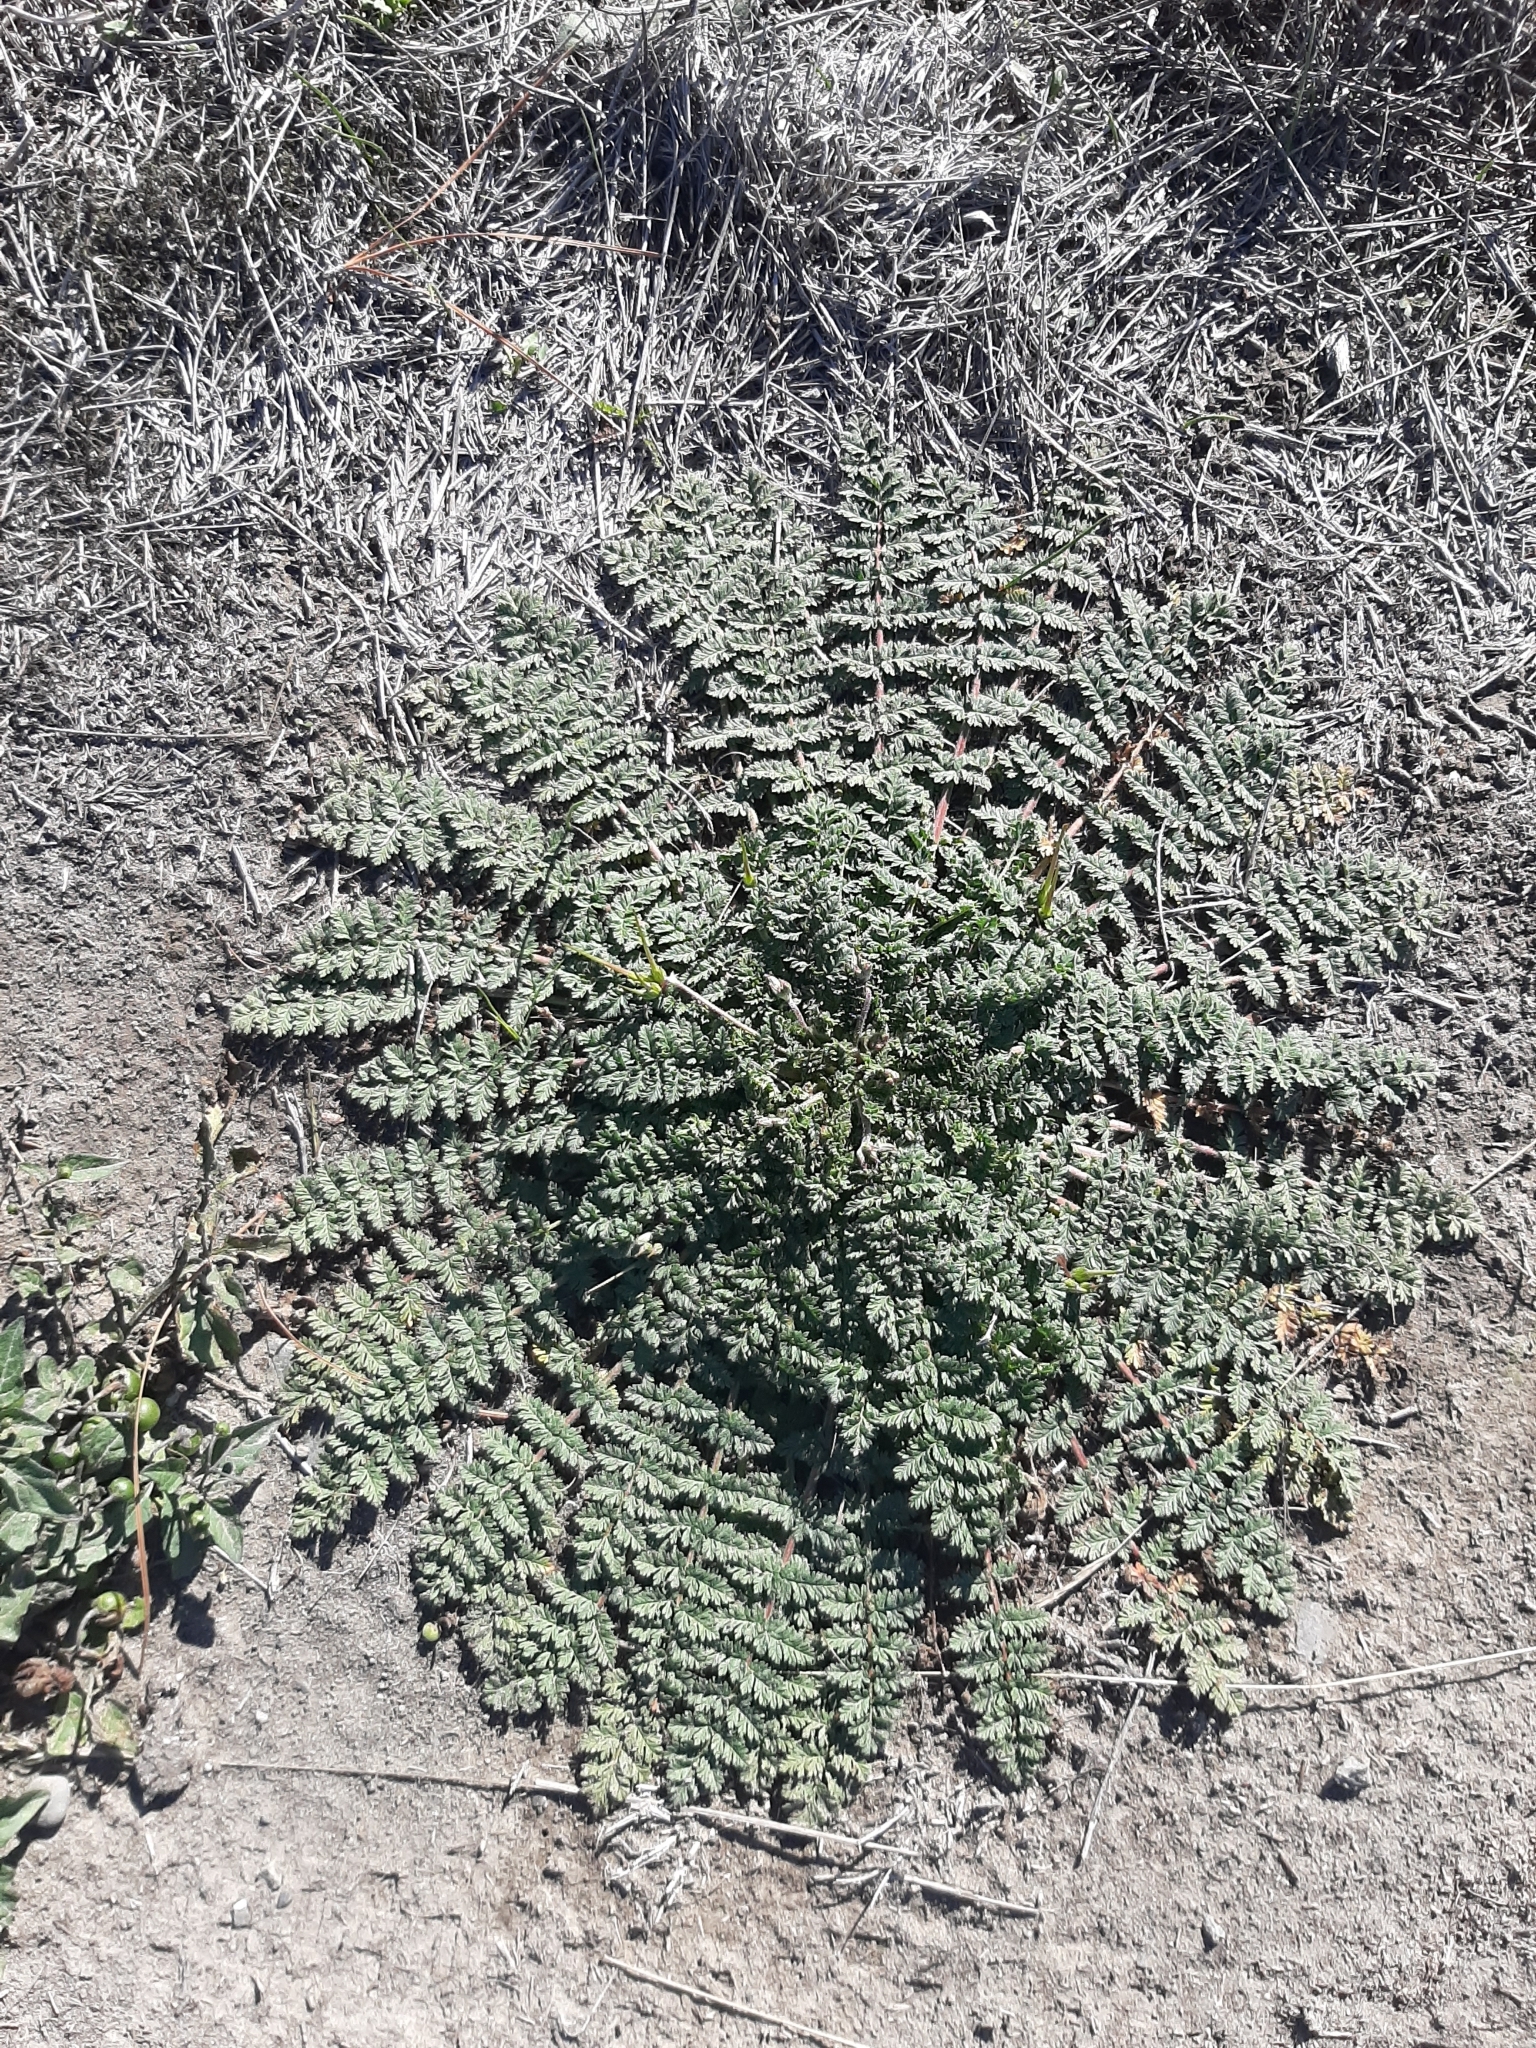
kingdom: Plantae
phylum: Tracheophyta
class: Magnoliopsida
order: Geraniales
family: Geraniaceae
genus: Erodium
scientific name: Erodium moschatum
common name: Musk stork's-bill
